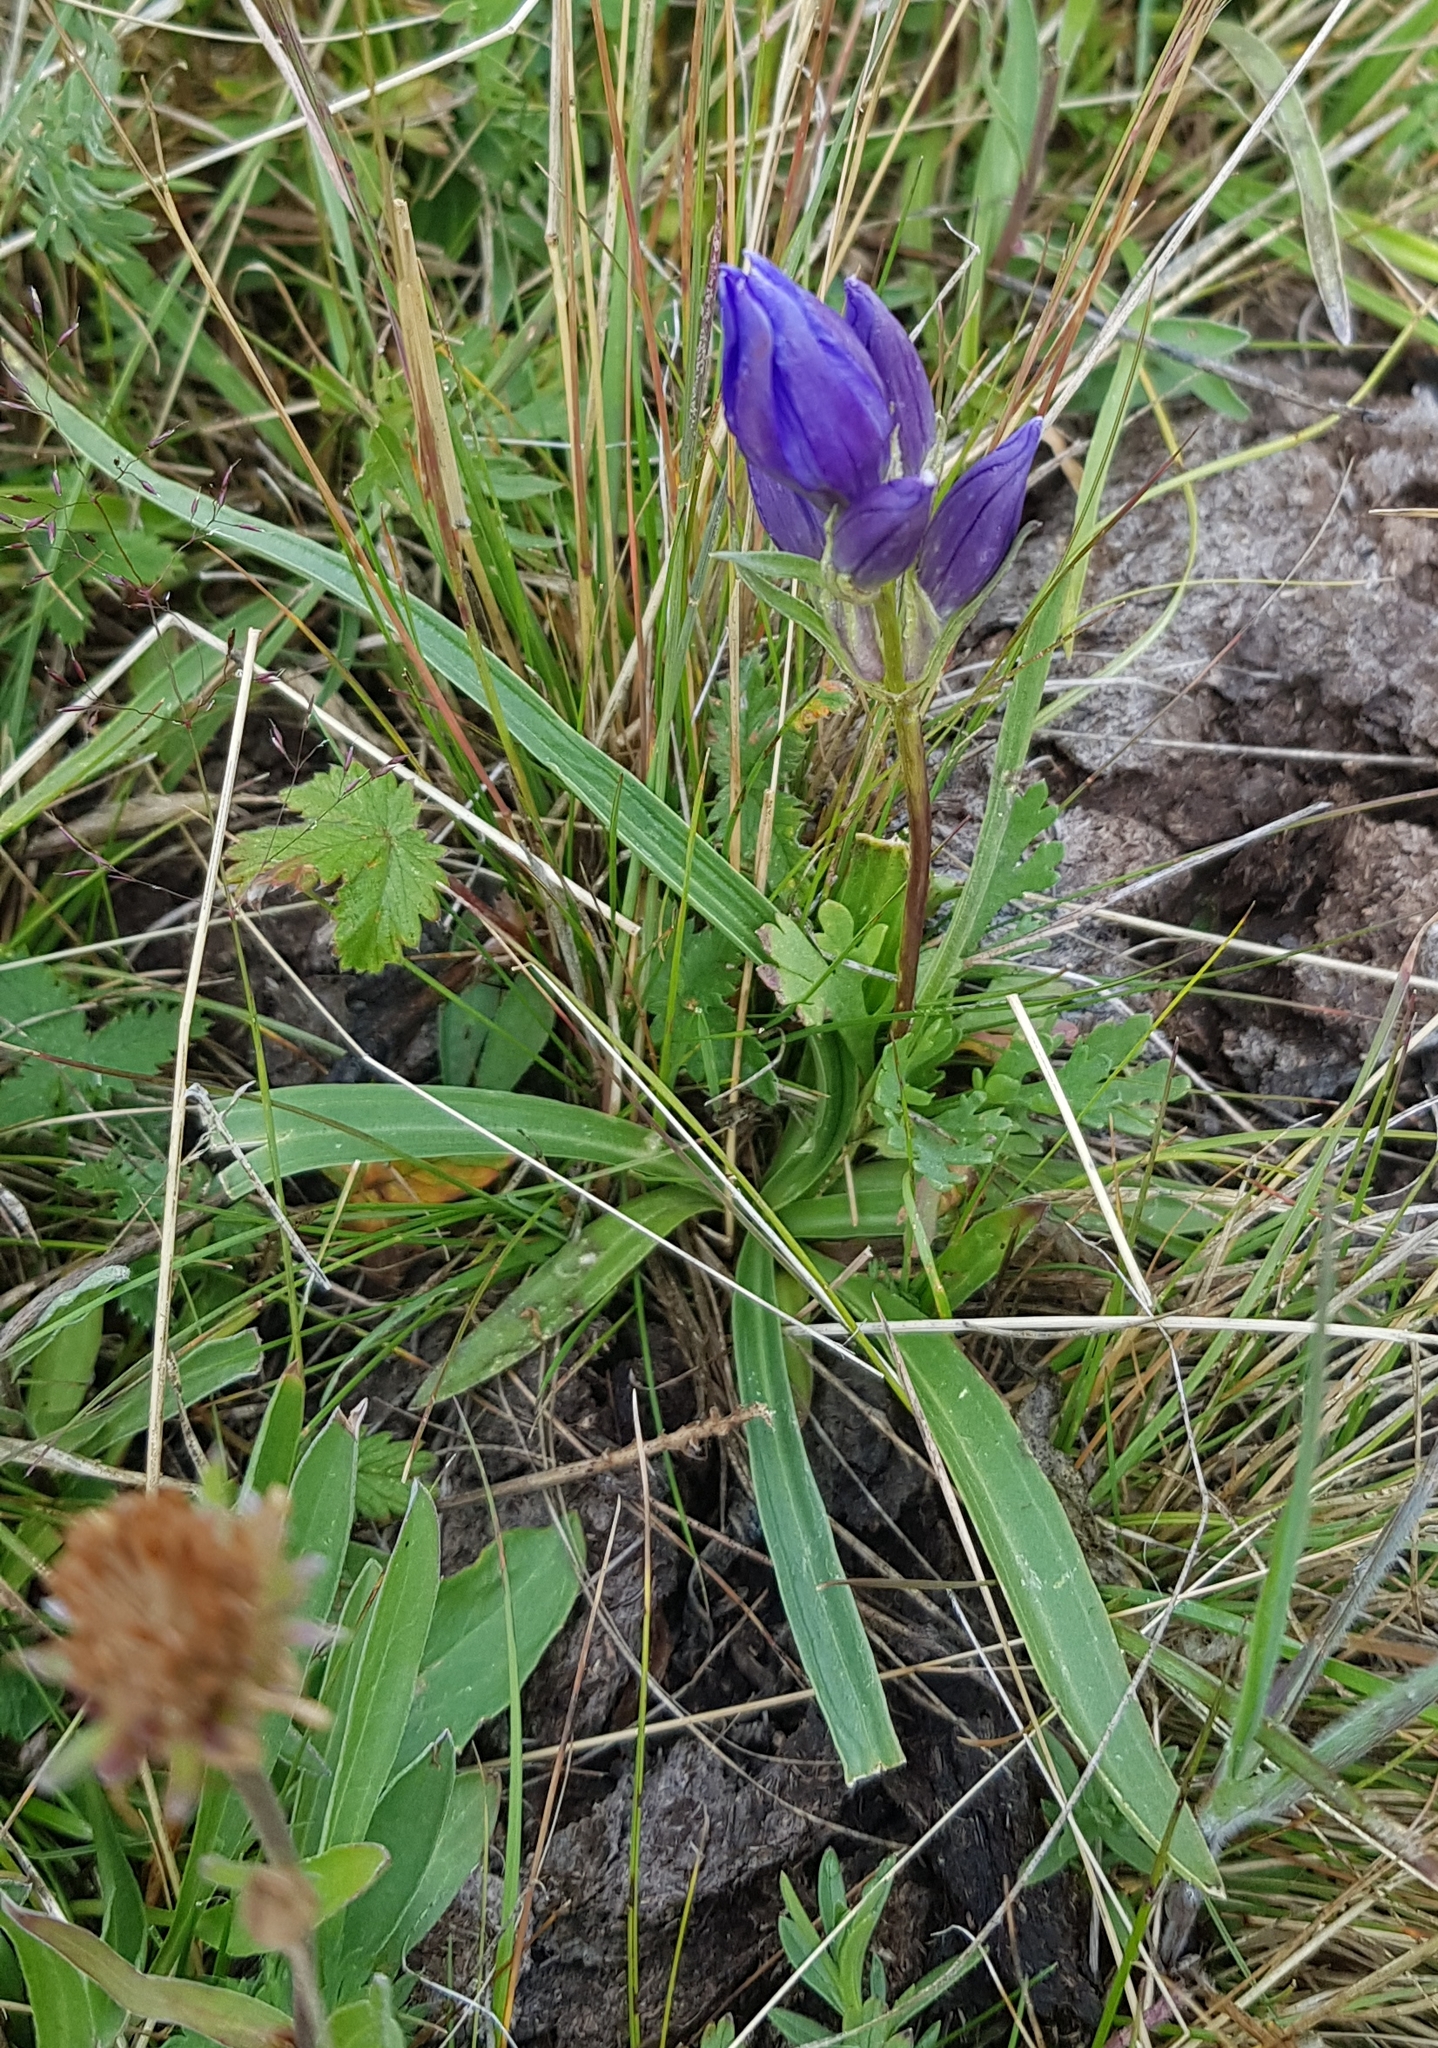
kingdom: Plantae
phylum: Tracheophyta
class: Magnoliopsida
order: Gentianales
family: Gentianaceae
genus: Gentiana
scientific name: Gentiana decumbens
